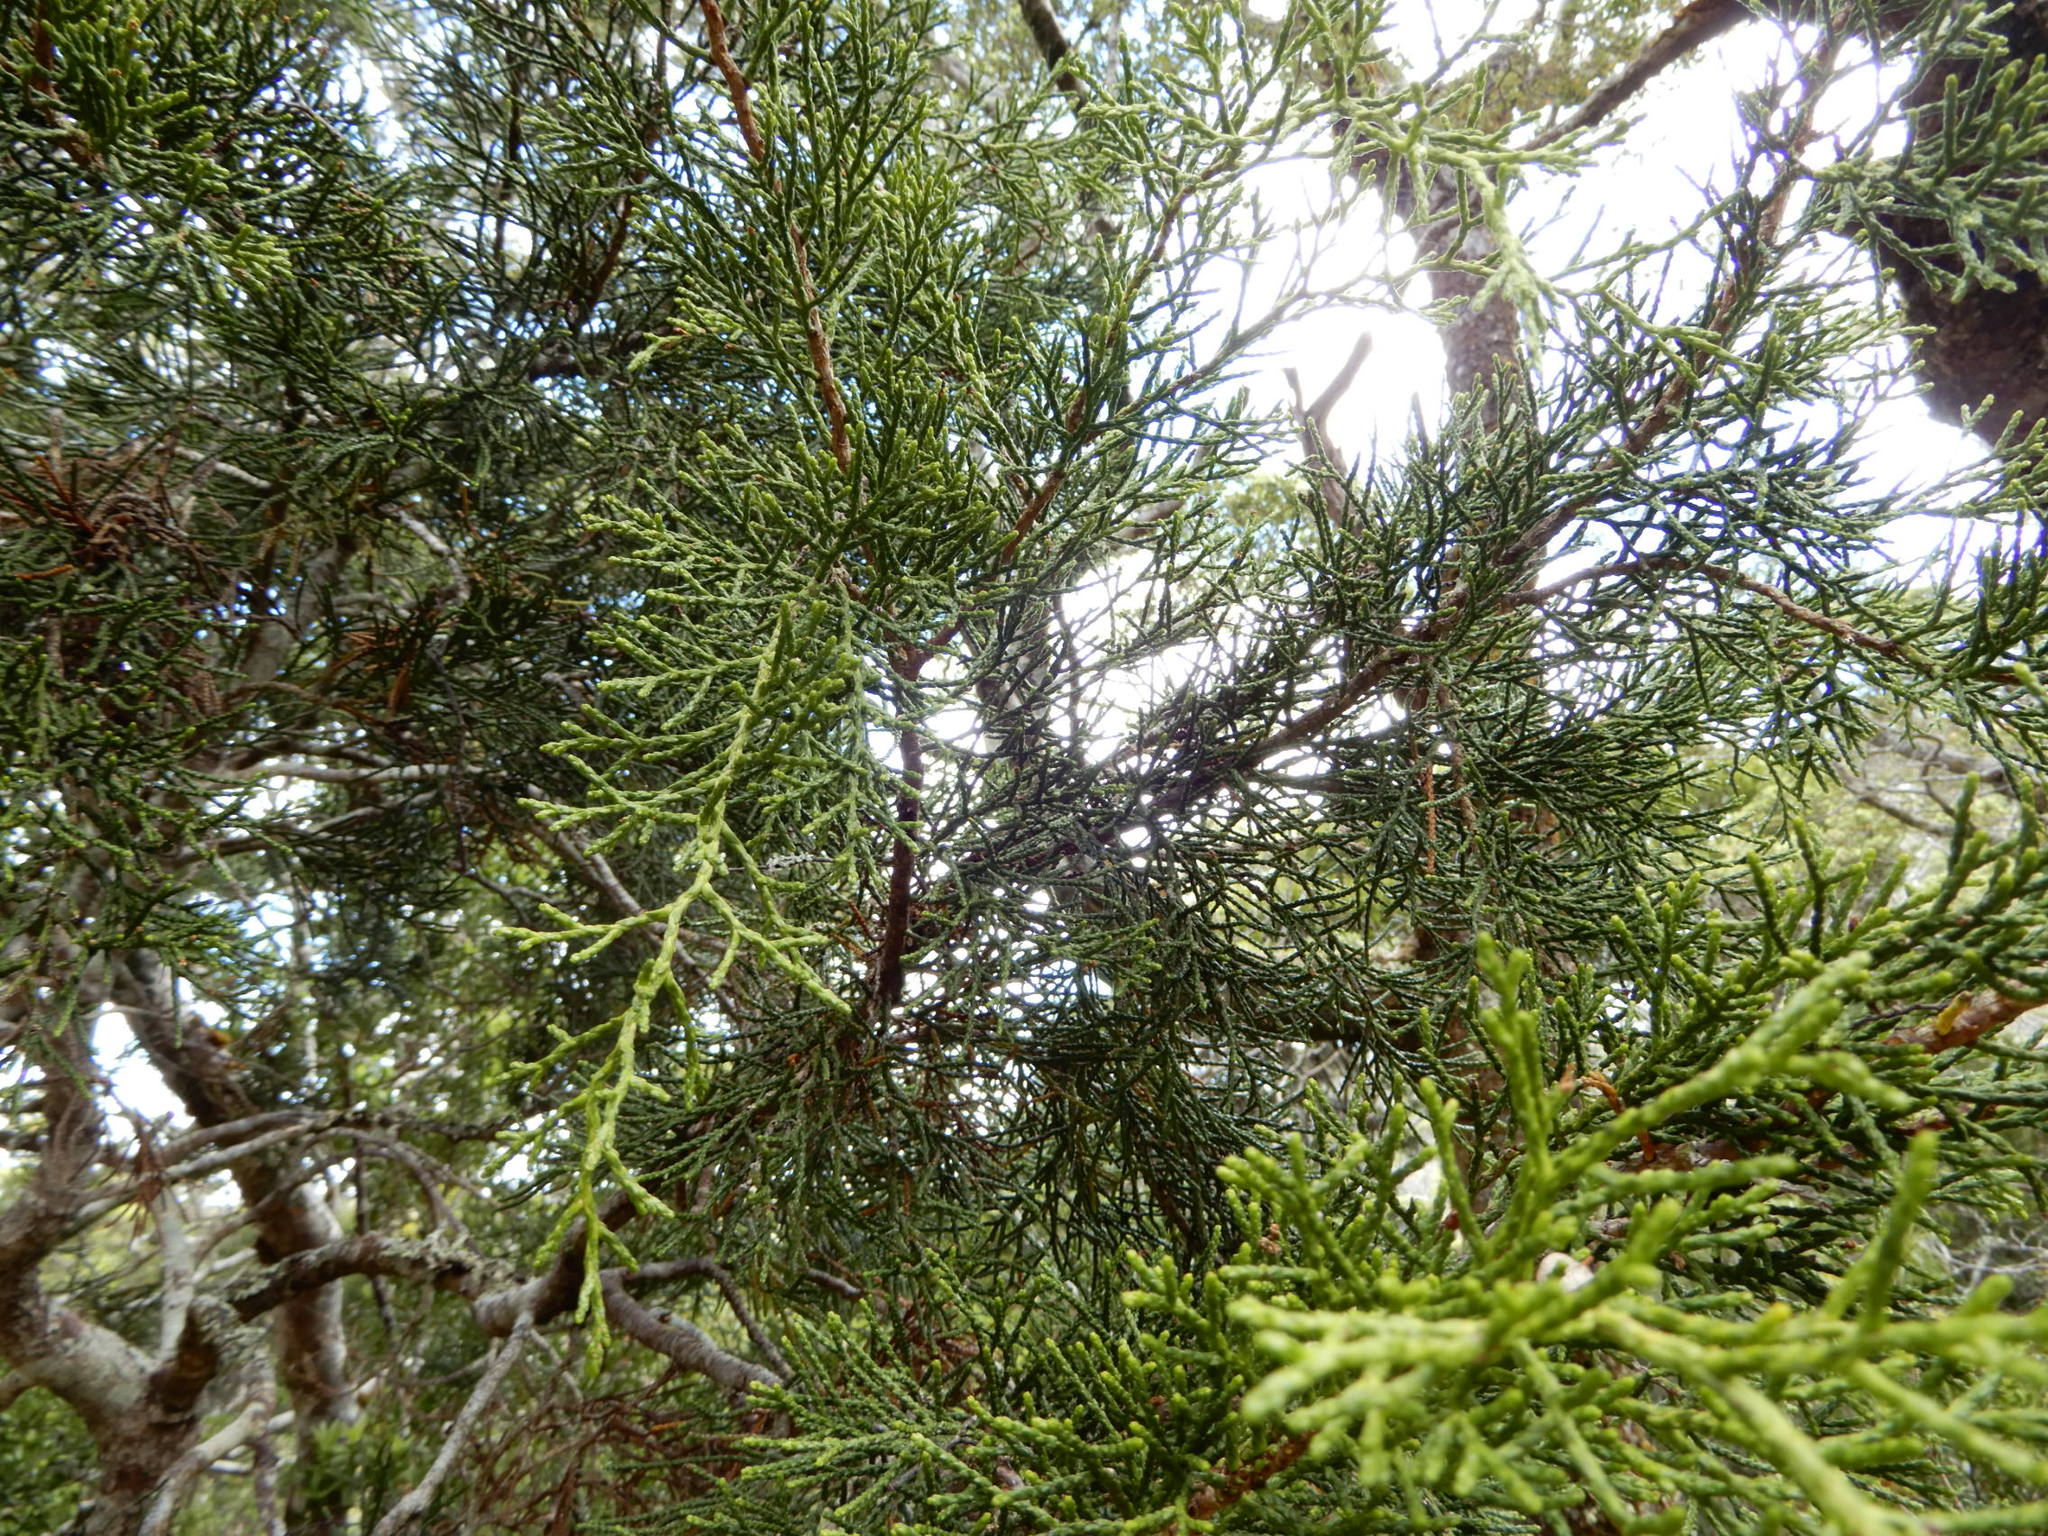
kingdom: Plantae
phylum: Tracheophyta
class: Pinopsida
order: Pinales
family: Podocarpaceae
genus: Halocarpus
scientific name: Halocarpus biformis
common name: Alpine tarwood
